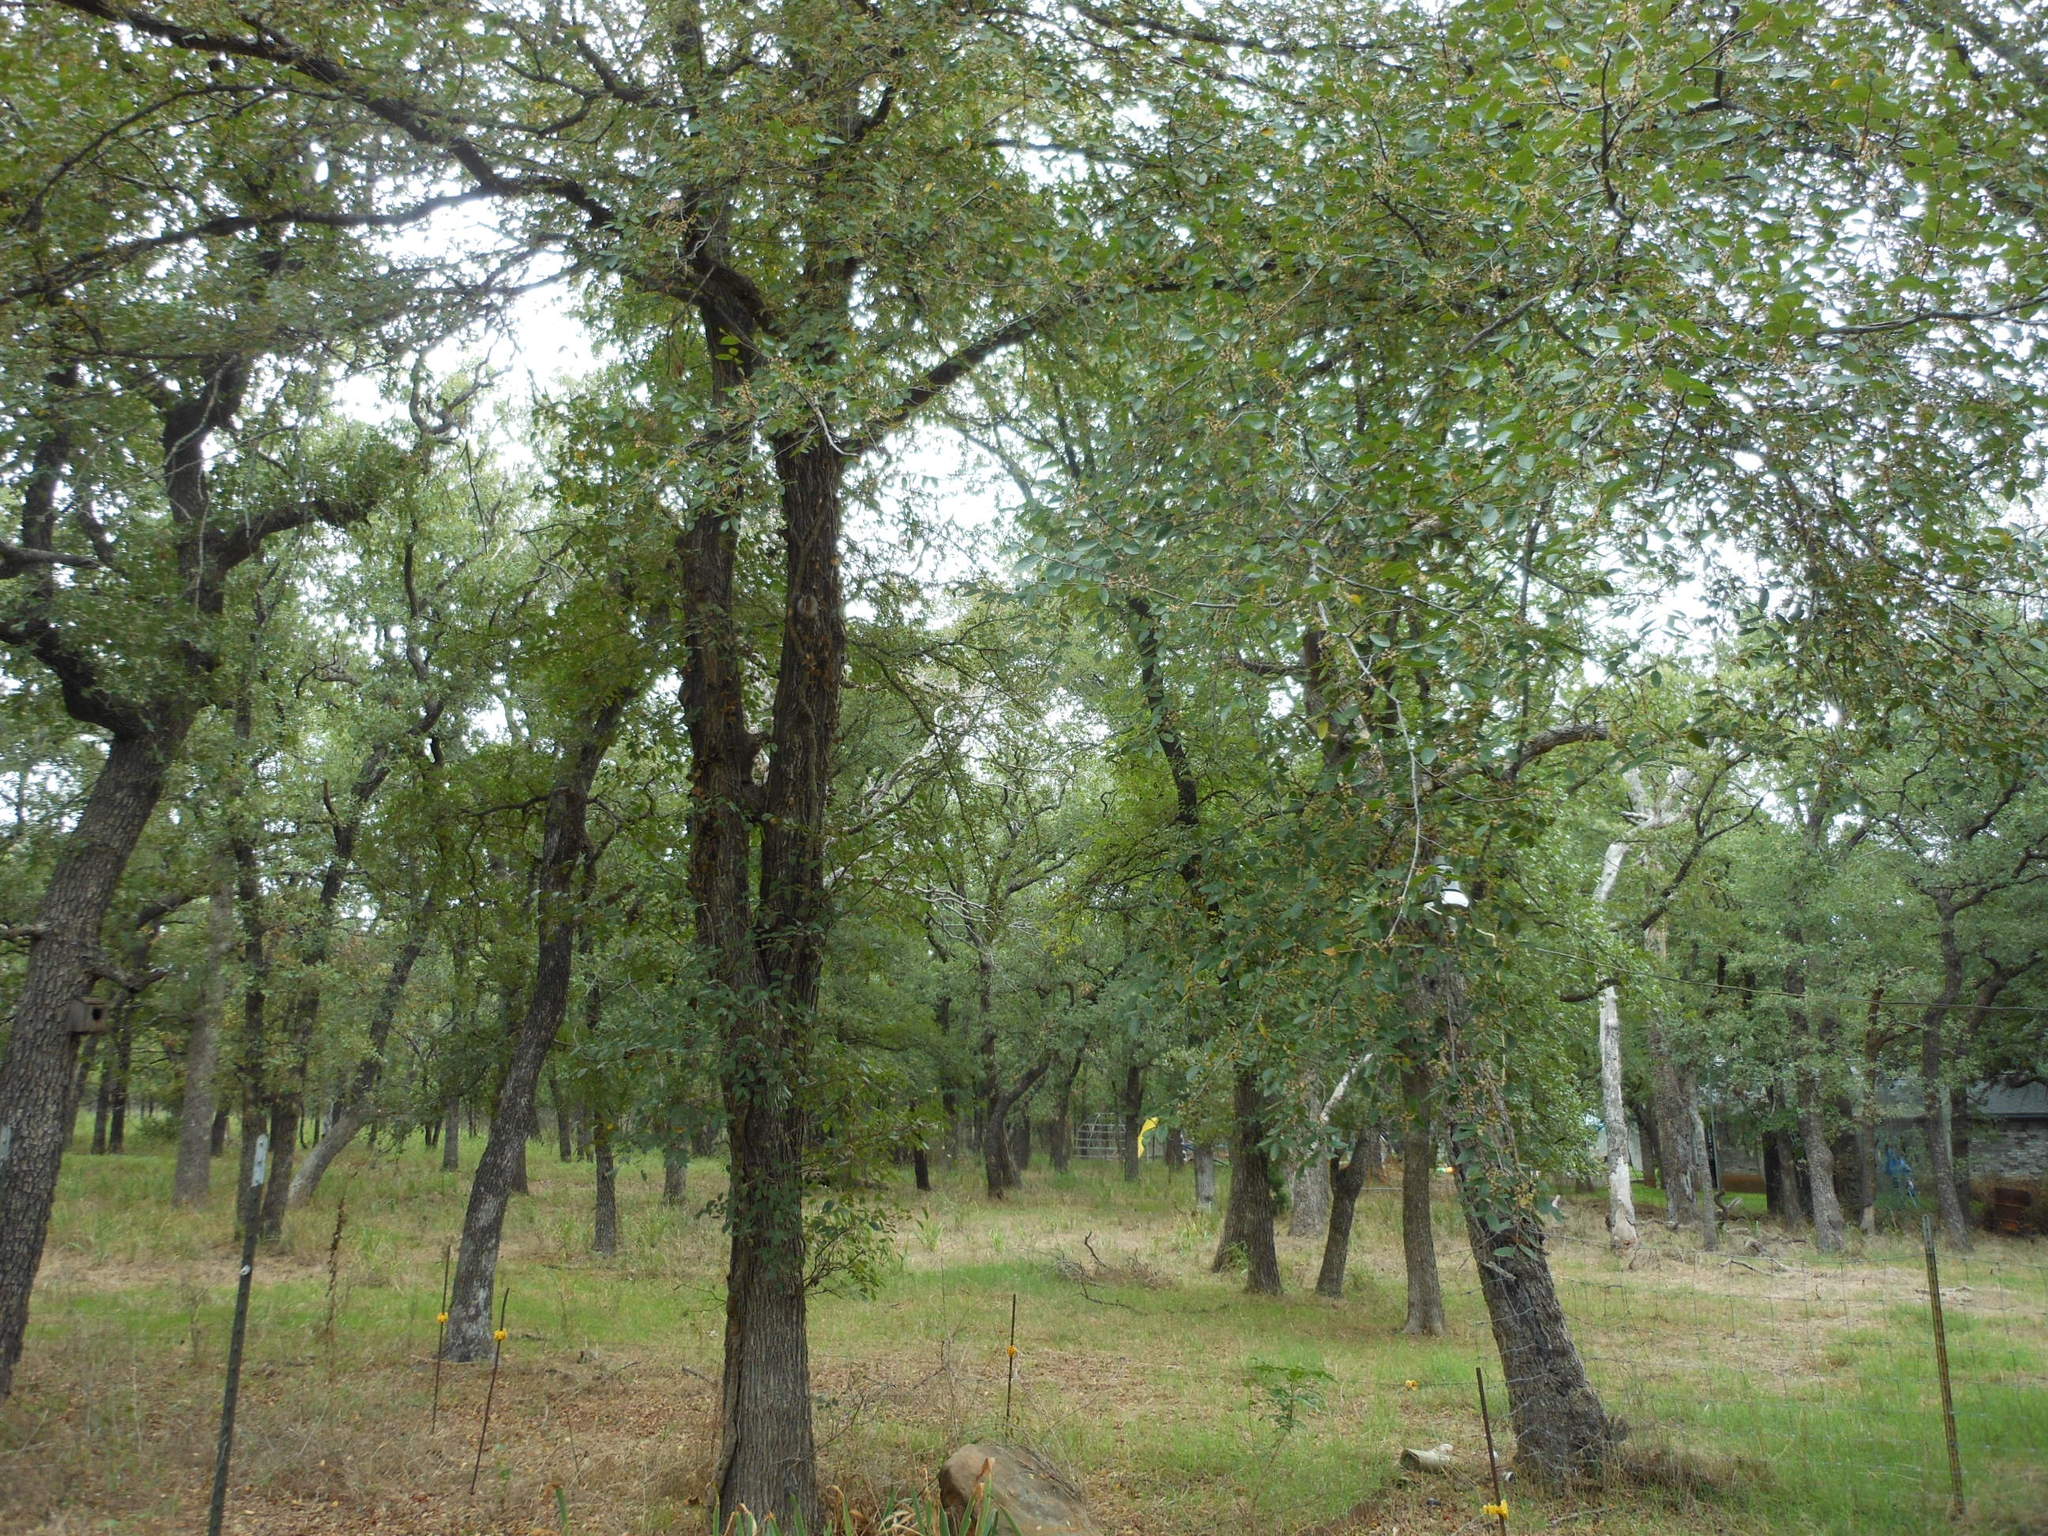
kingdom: Plantae
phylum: Tracheophyta
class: Magnoliopsida
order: Rosales
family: Ulmaceae
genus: Ulmus
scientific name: Ulmus crassifolia
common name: Basket elm
